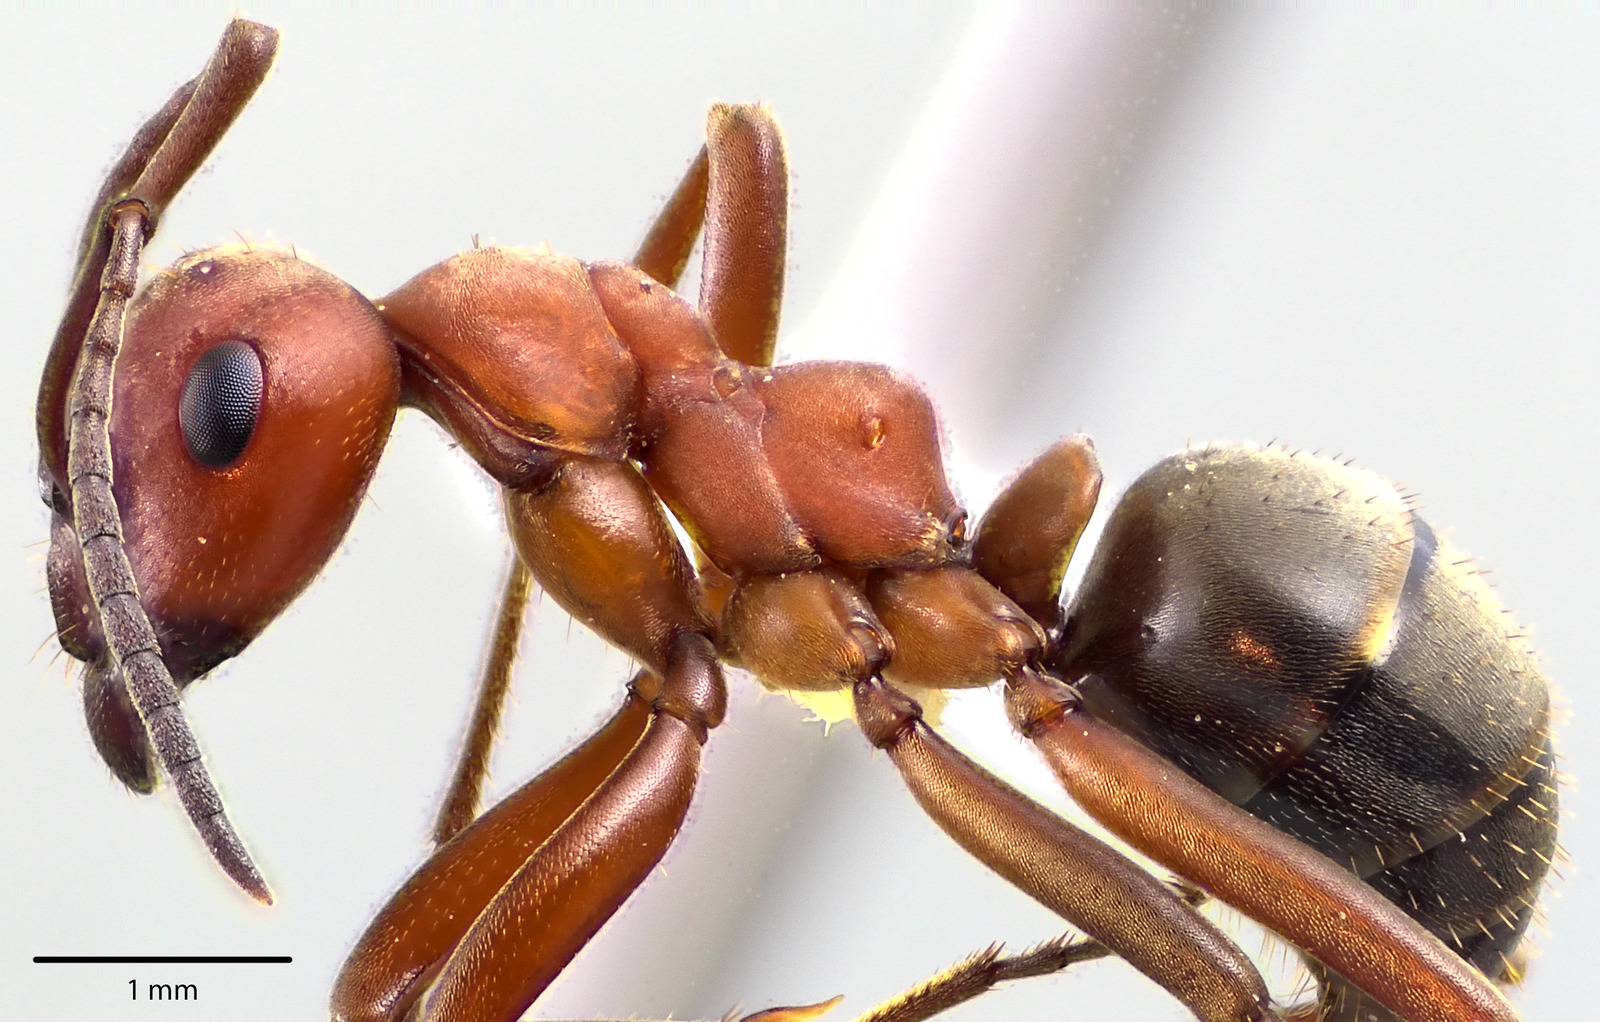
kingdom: Animalia
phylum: Arthropoda
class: Insecta
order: Hymenoptera
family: Formicidae
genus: Formica
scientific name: Formica subintegra
